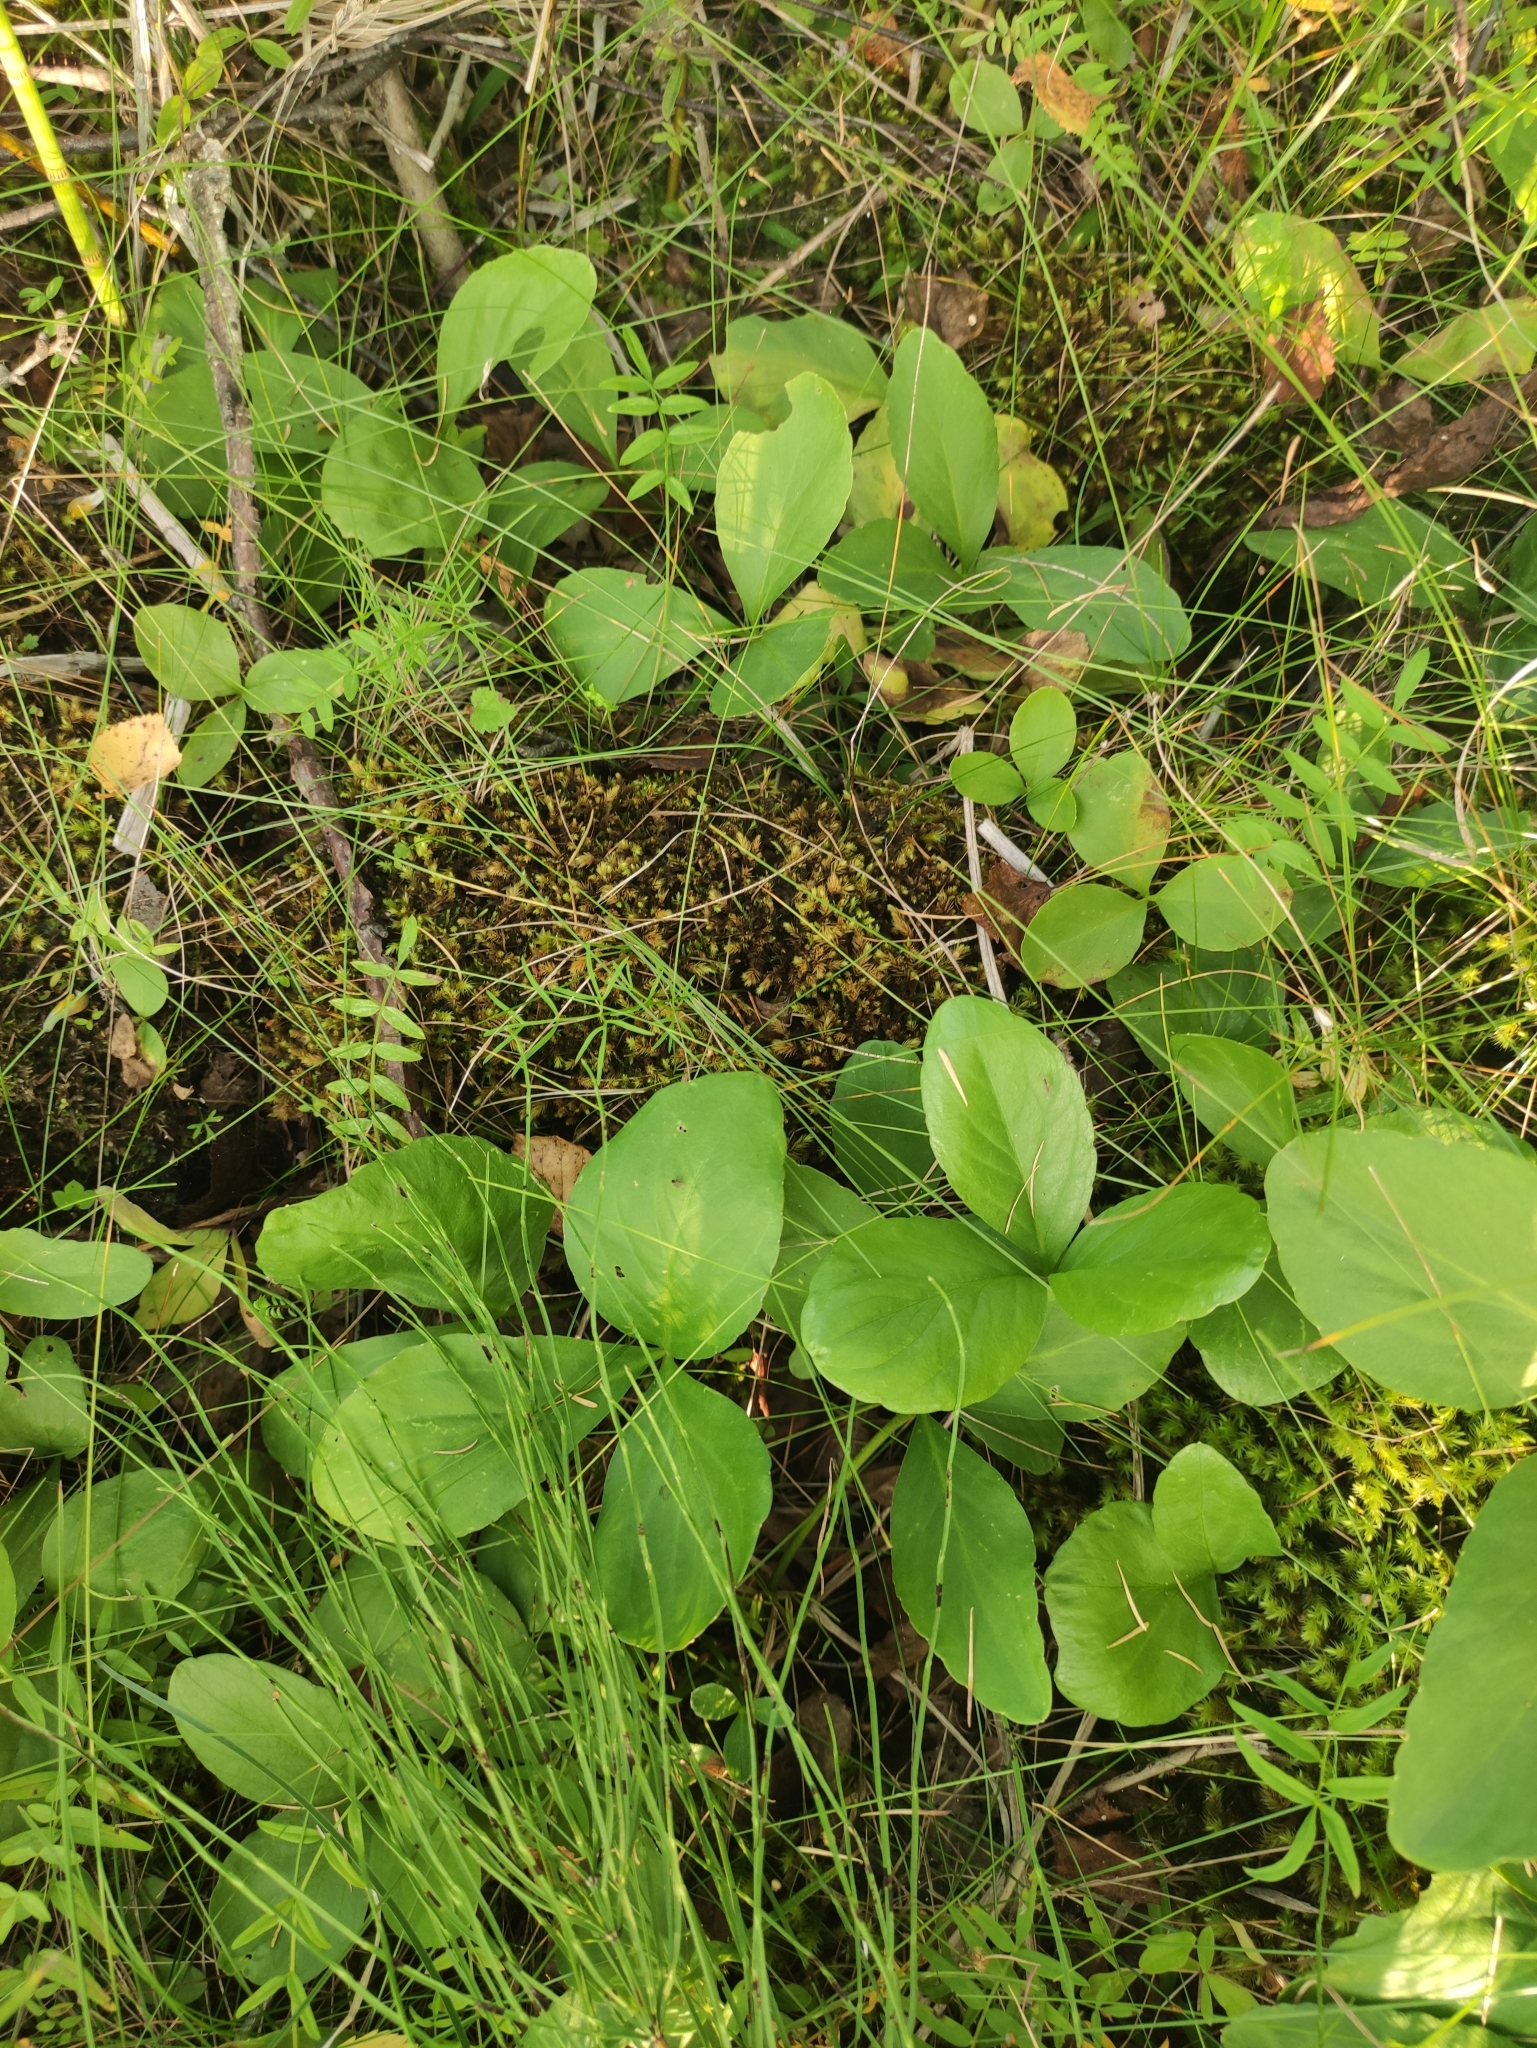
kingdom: Plantae
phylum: Tracheophyta
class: Magnoliopsida
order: Asterales
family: Menyanthaceae
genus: Menyanthes
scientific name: Menyanthes trifoliata
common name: Bogbean
